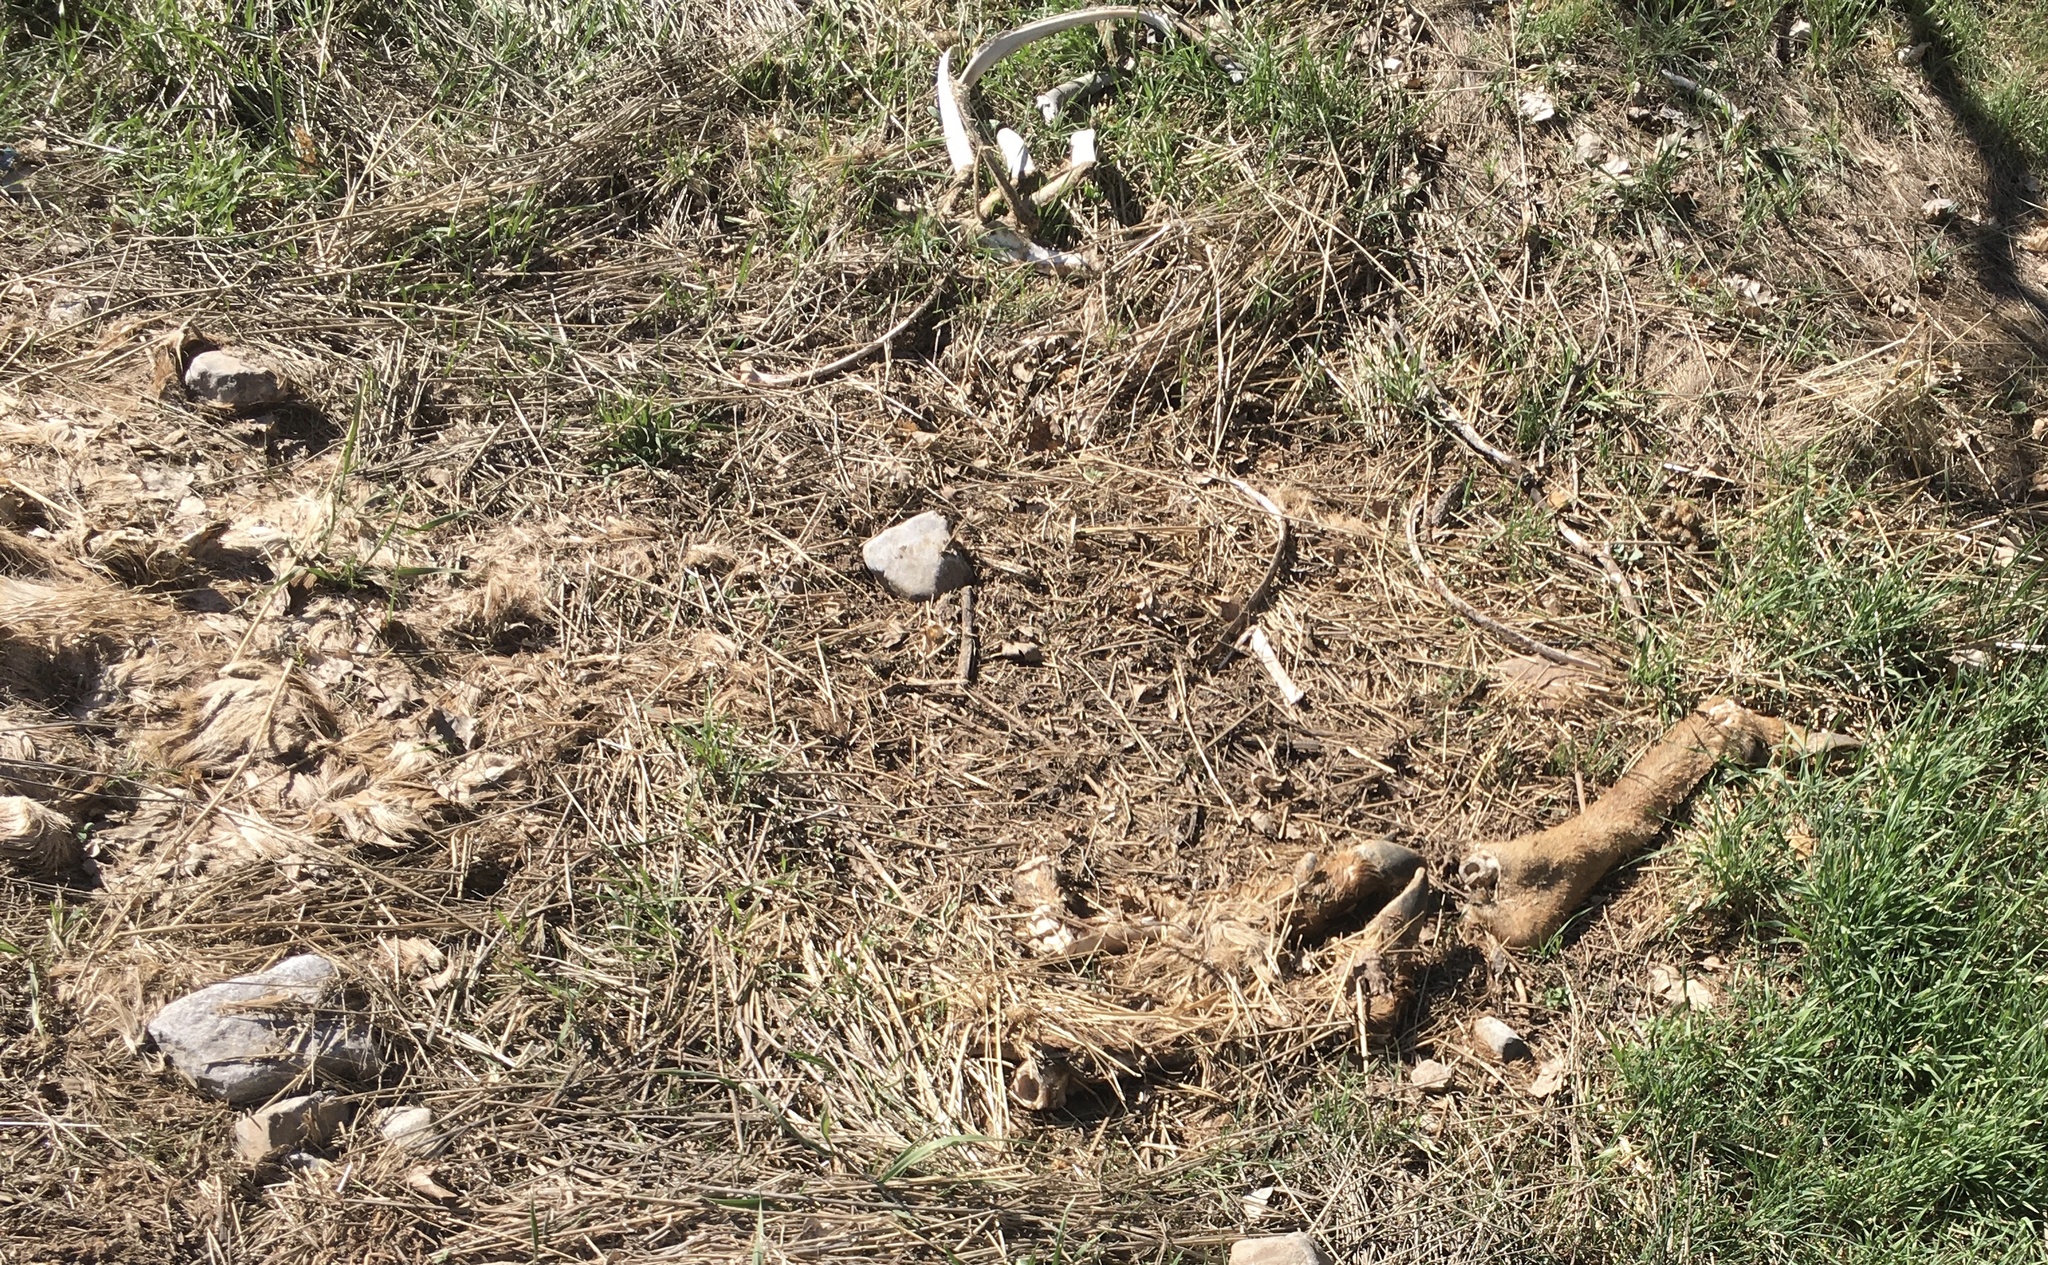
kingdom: Animalia
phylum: Chordata
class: Mammalia
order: Artiodactyla
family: Cervidae
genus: Odocoileus
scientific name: Odocoileus hemionus
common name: Mule deer
